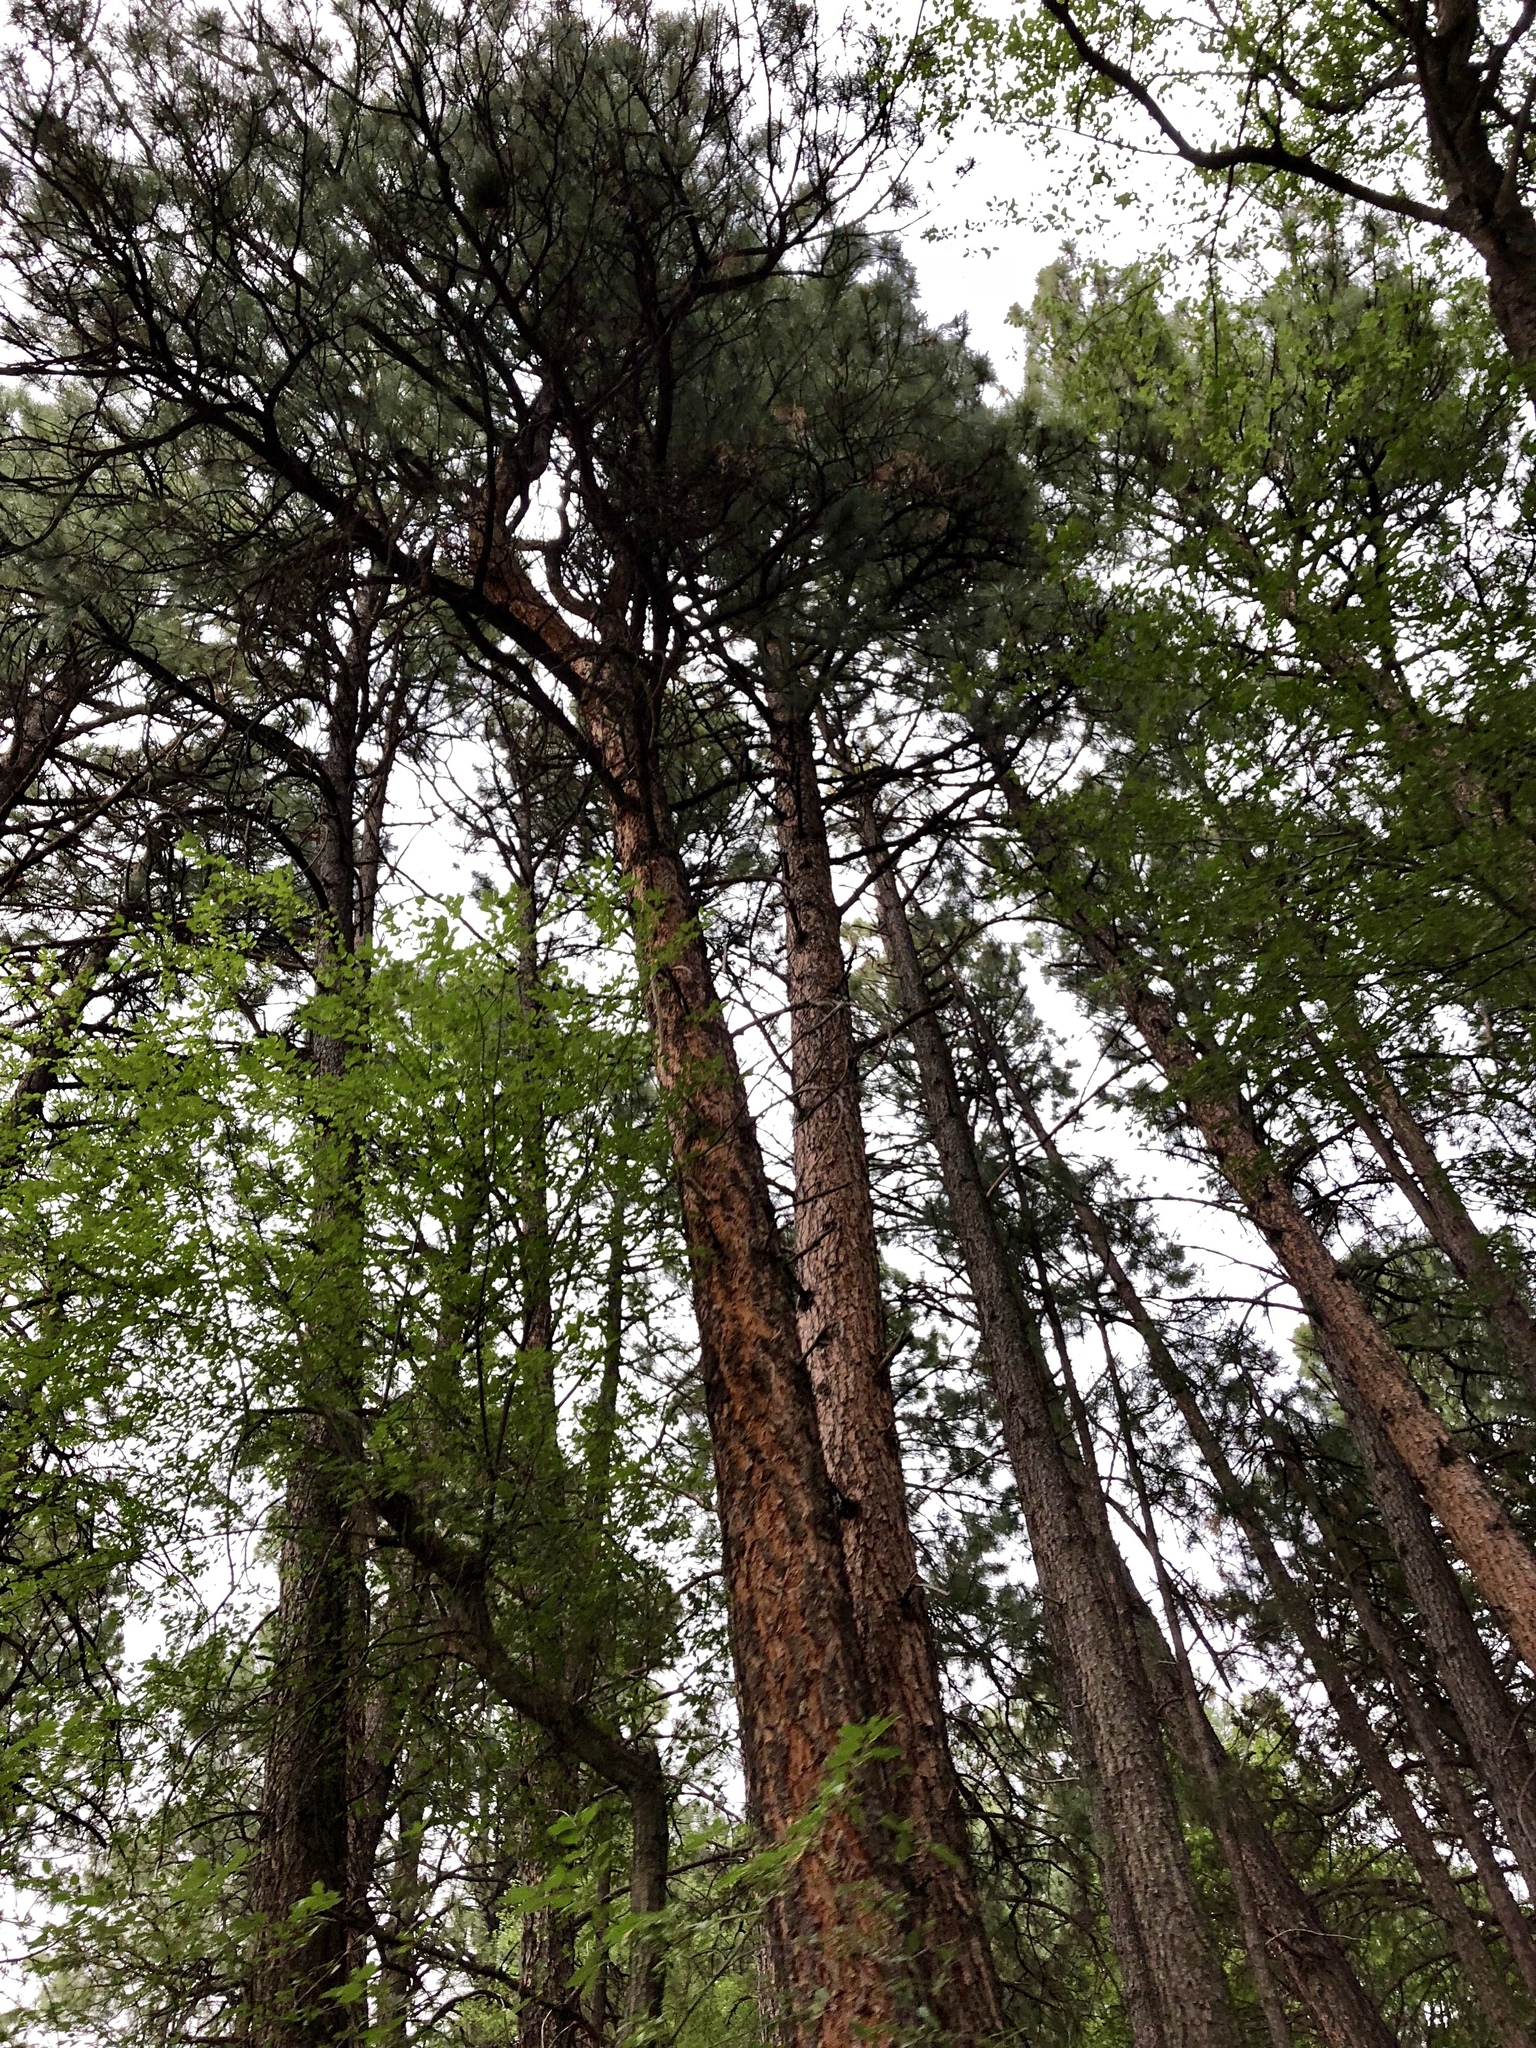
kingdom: Plantae
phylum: Tracheophyta
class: Pinopsida
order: Pinales
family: Pinaceae
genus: Pinus
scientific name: Pinus ponderosa
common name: Western yellow-pine
